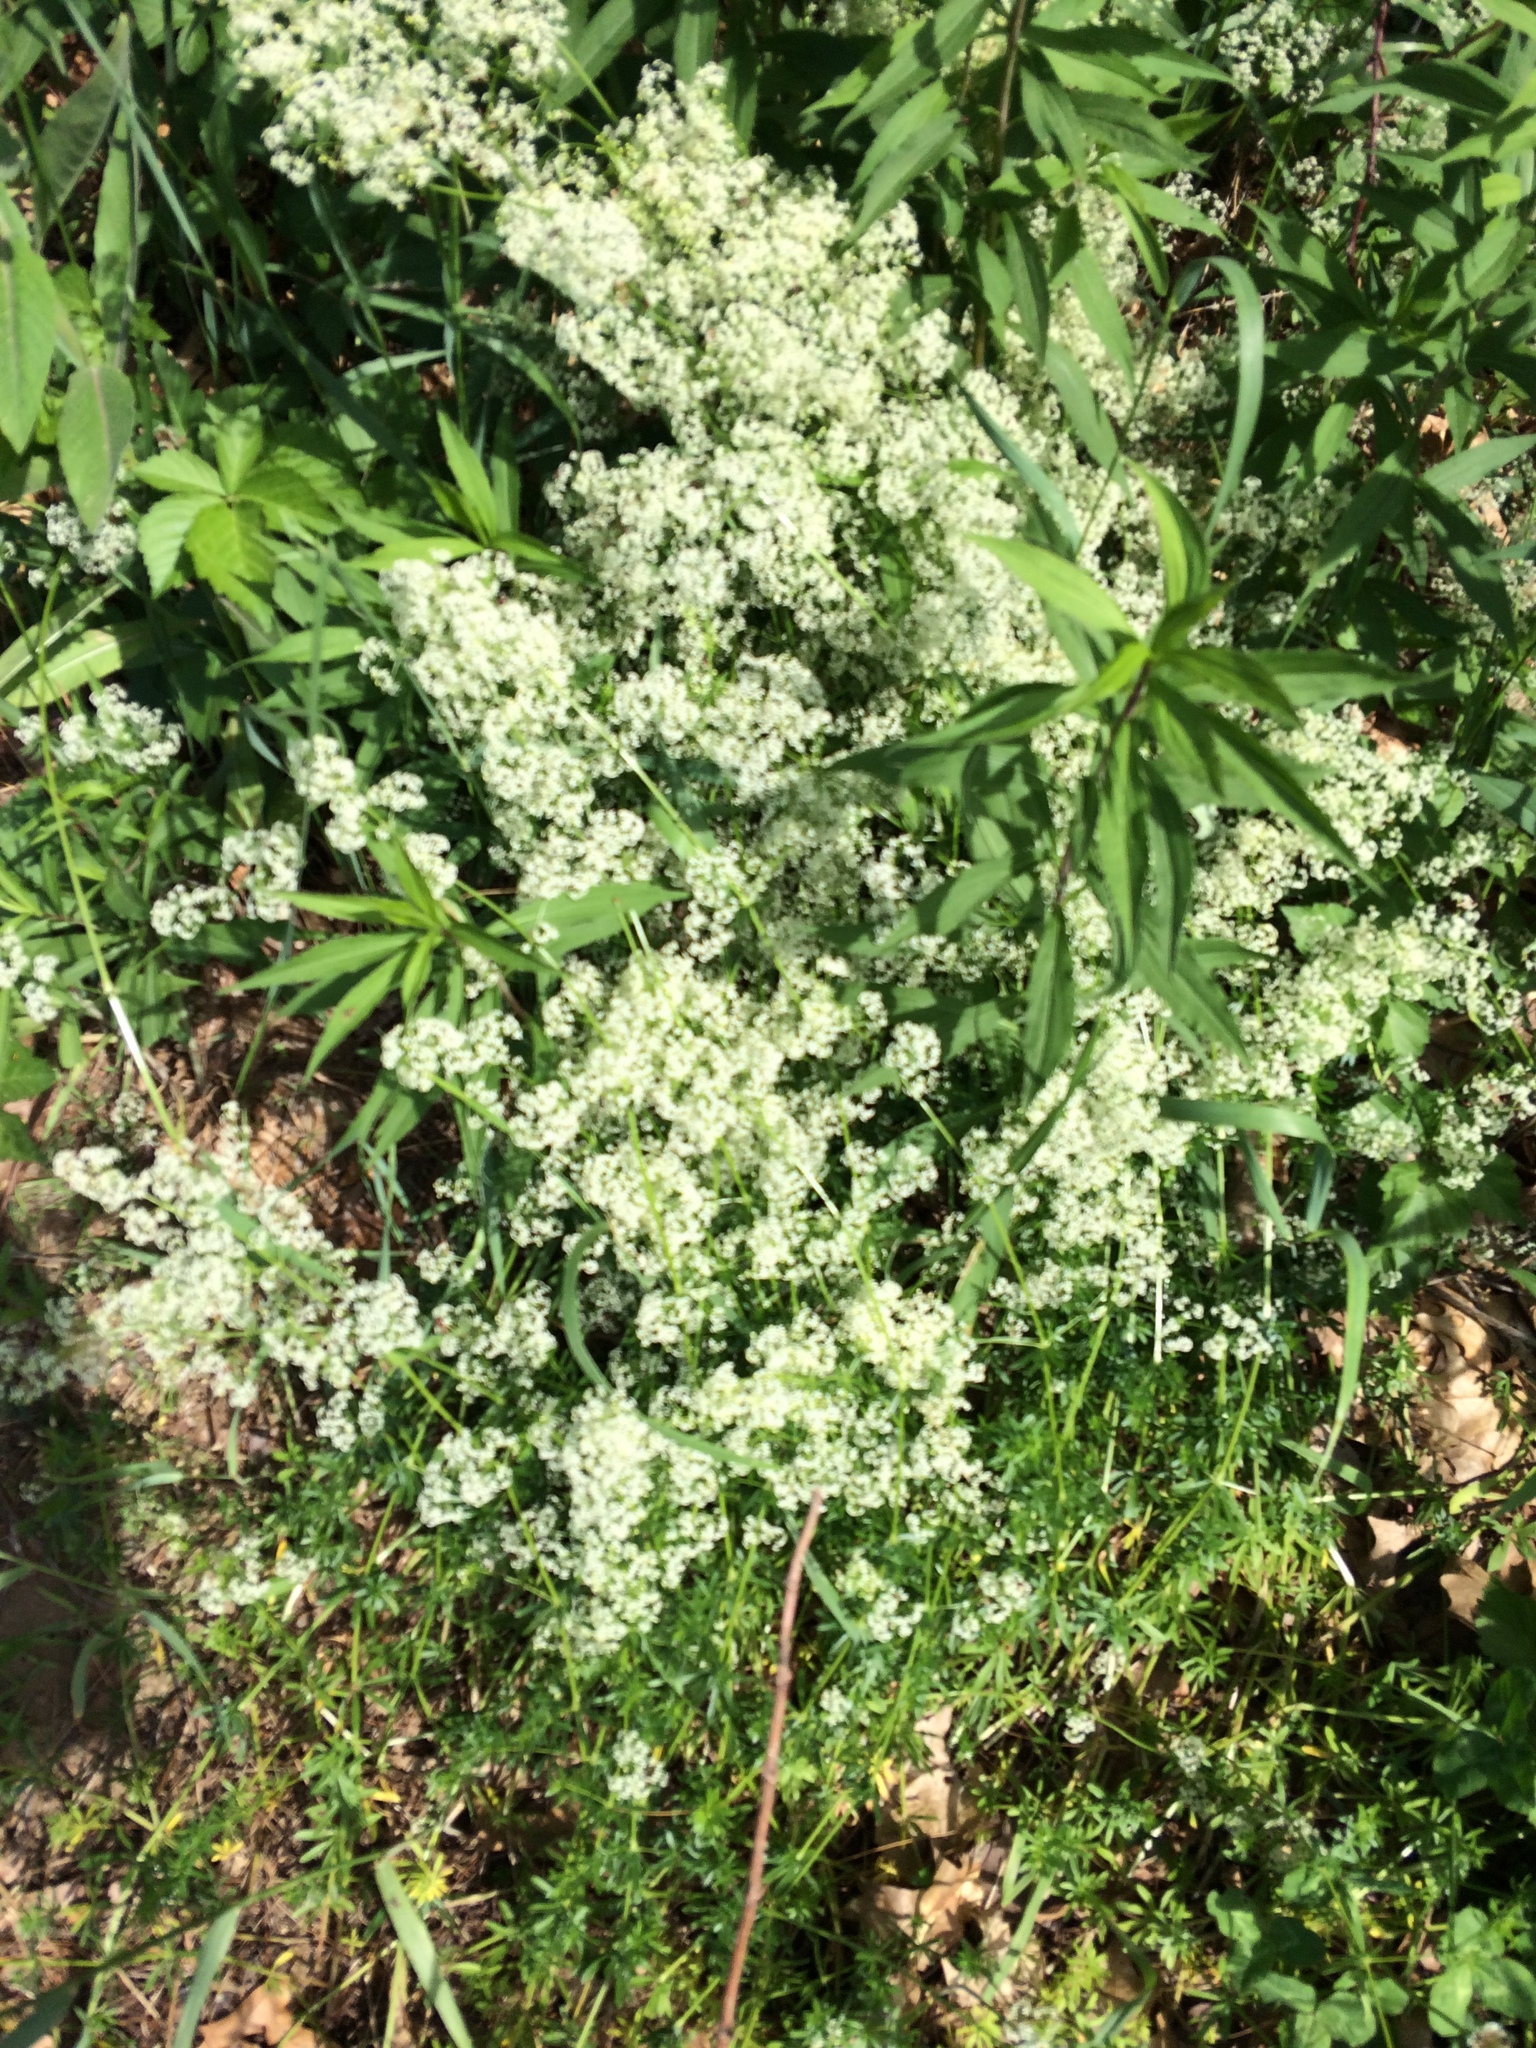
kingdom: Plantae
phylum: Tracheophyta
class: Magnoliopsida
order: Gentianales
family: Rubiaceae
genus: Galium
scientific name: Galium mollugo
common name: Hedge bedstraw
